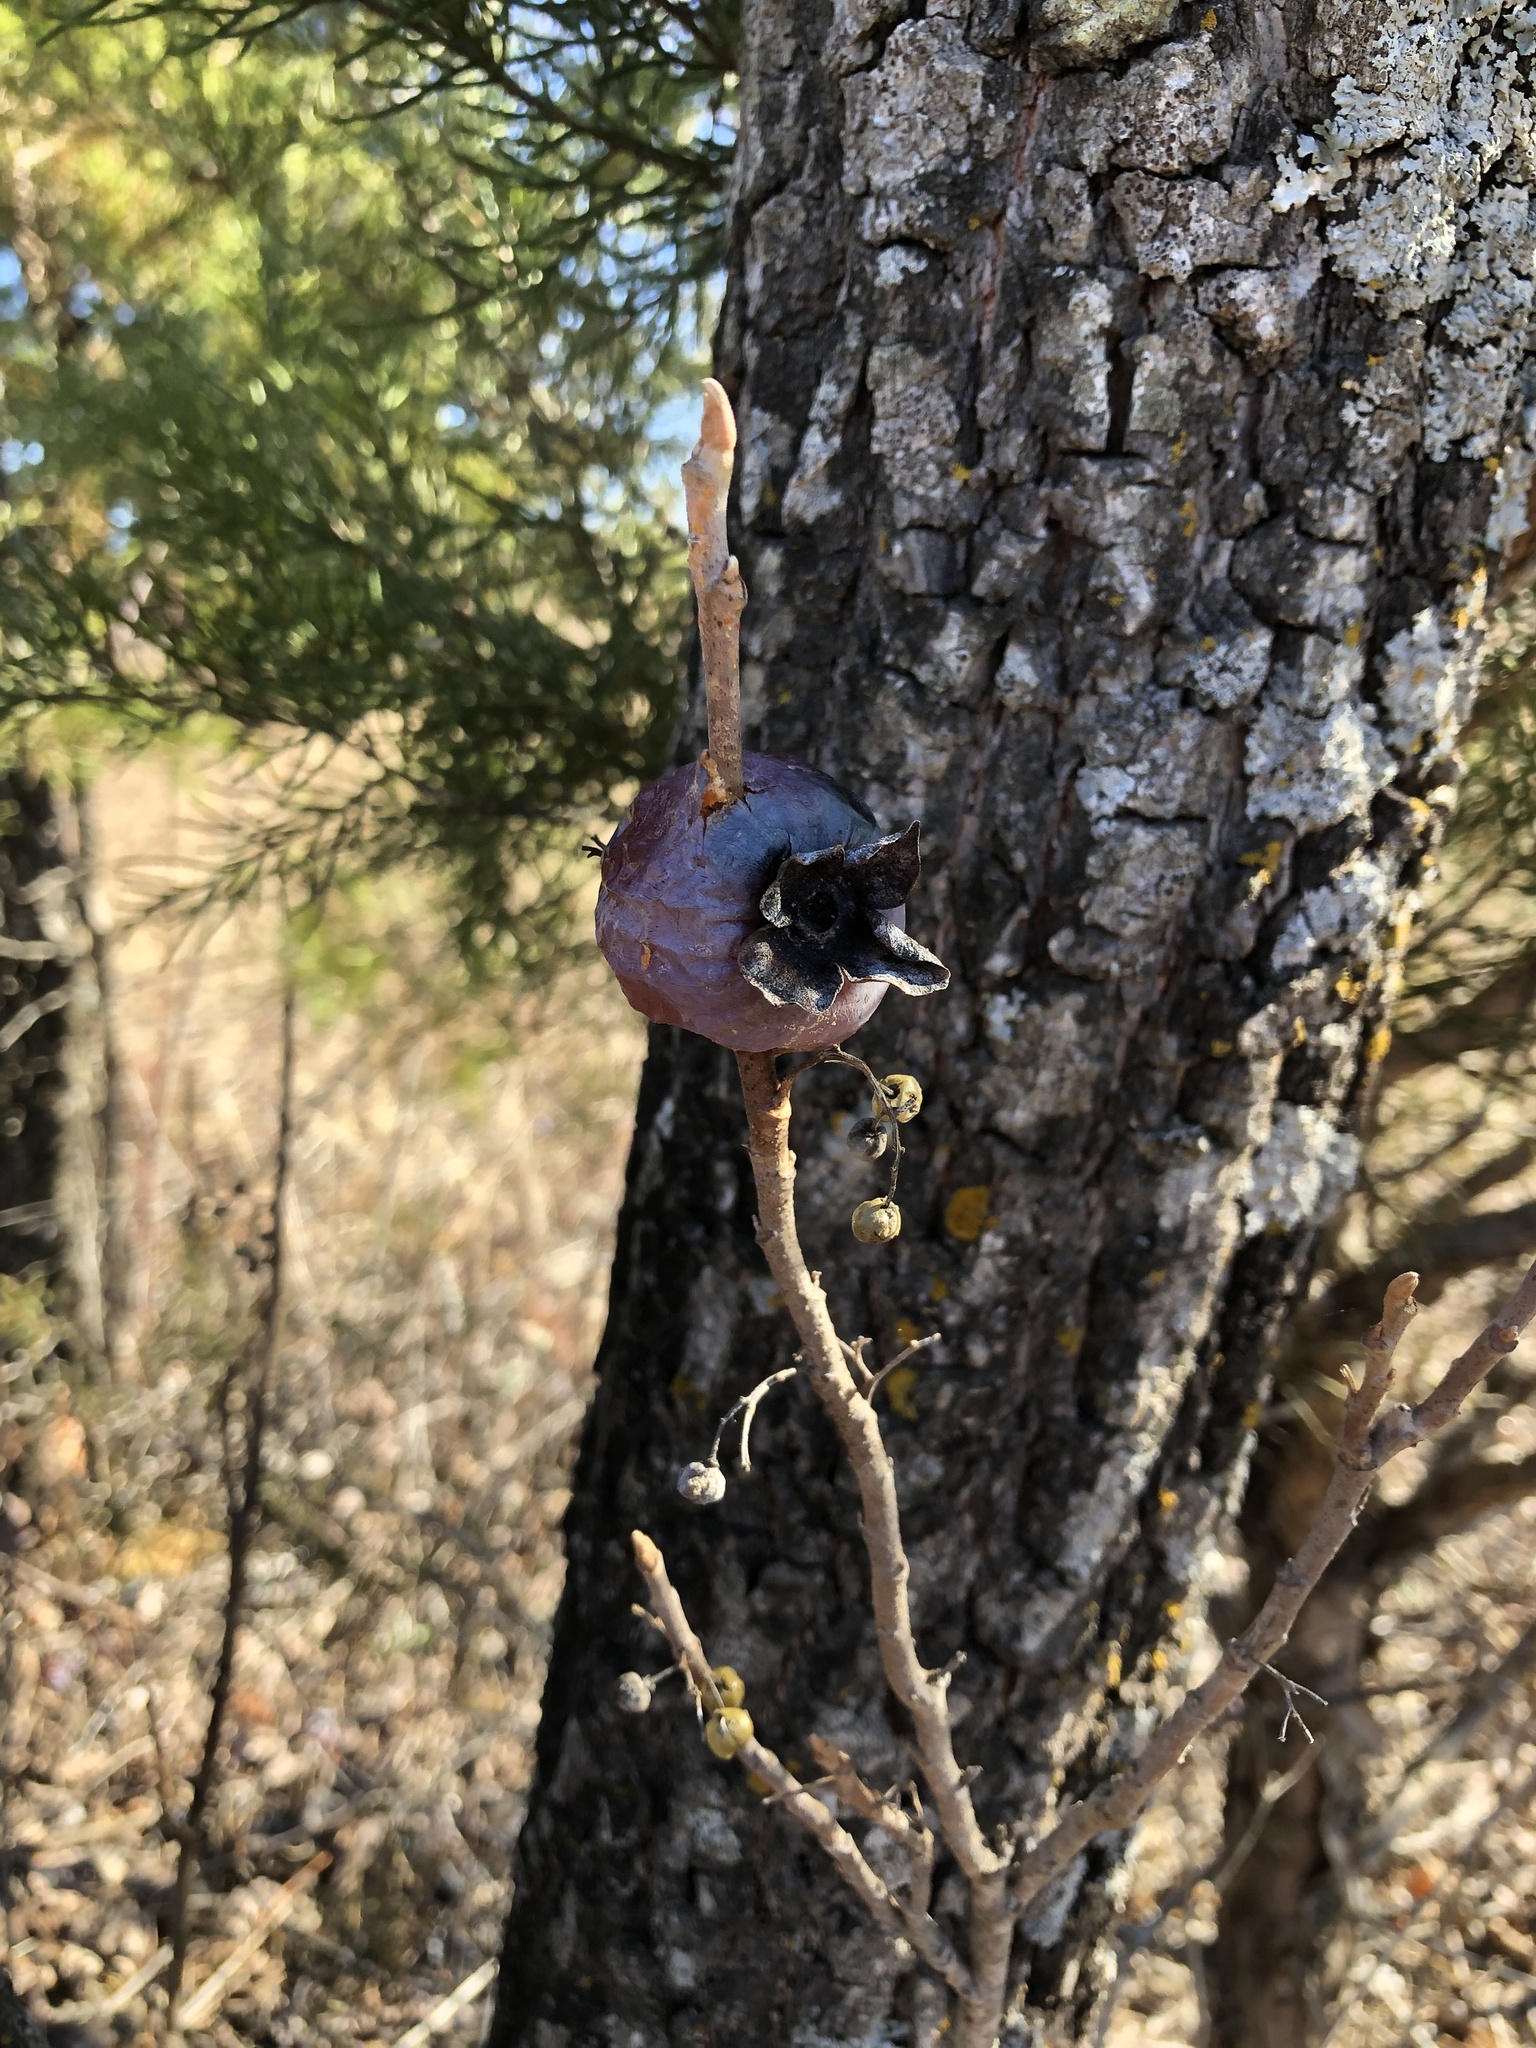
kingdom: Plantae
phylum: Tracheophyta
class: Magnoliopsida
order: Ericales
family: Ebenaceae
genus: Diospyros
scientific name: Diospyros virginiana
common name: Persimmon
